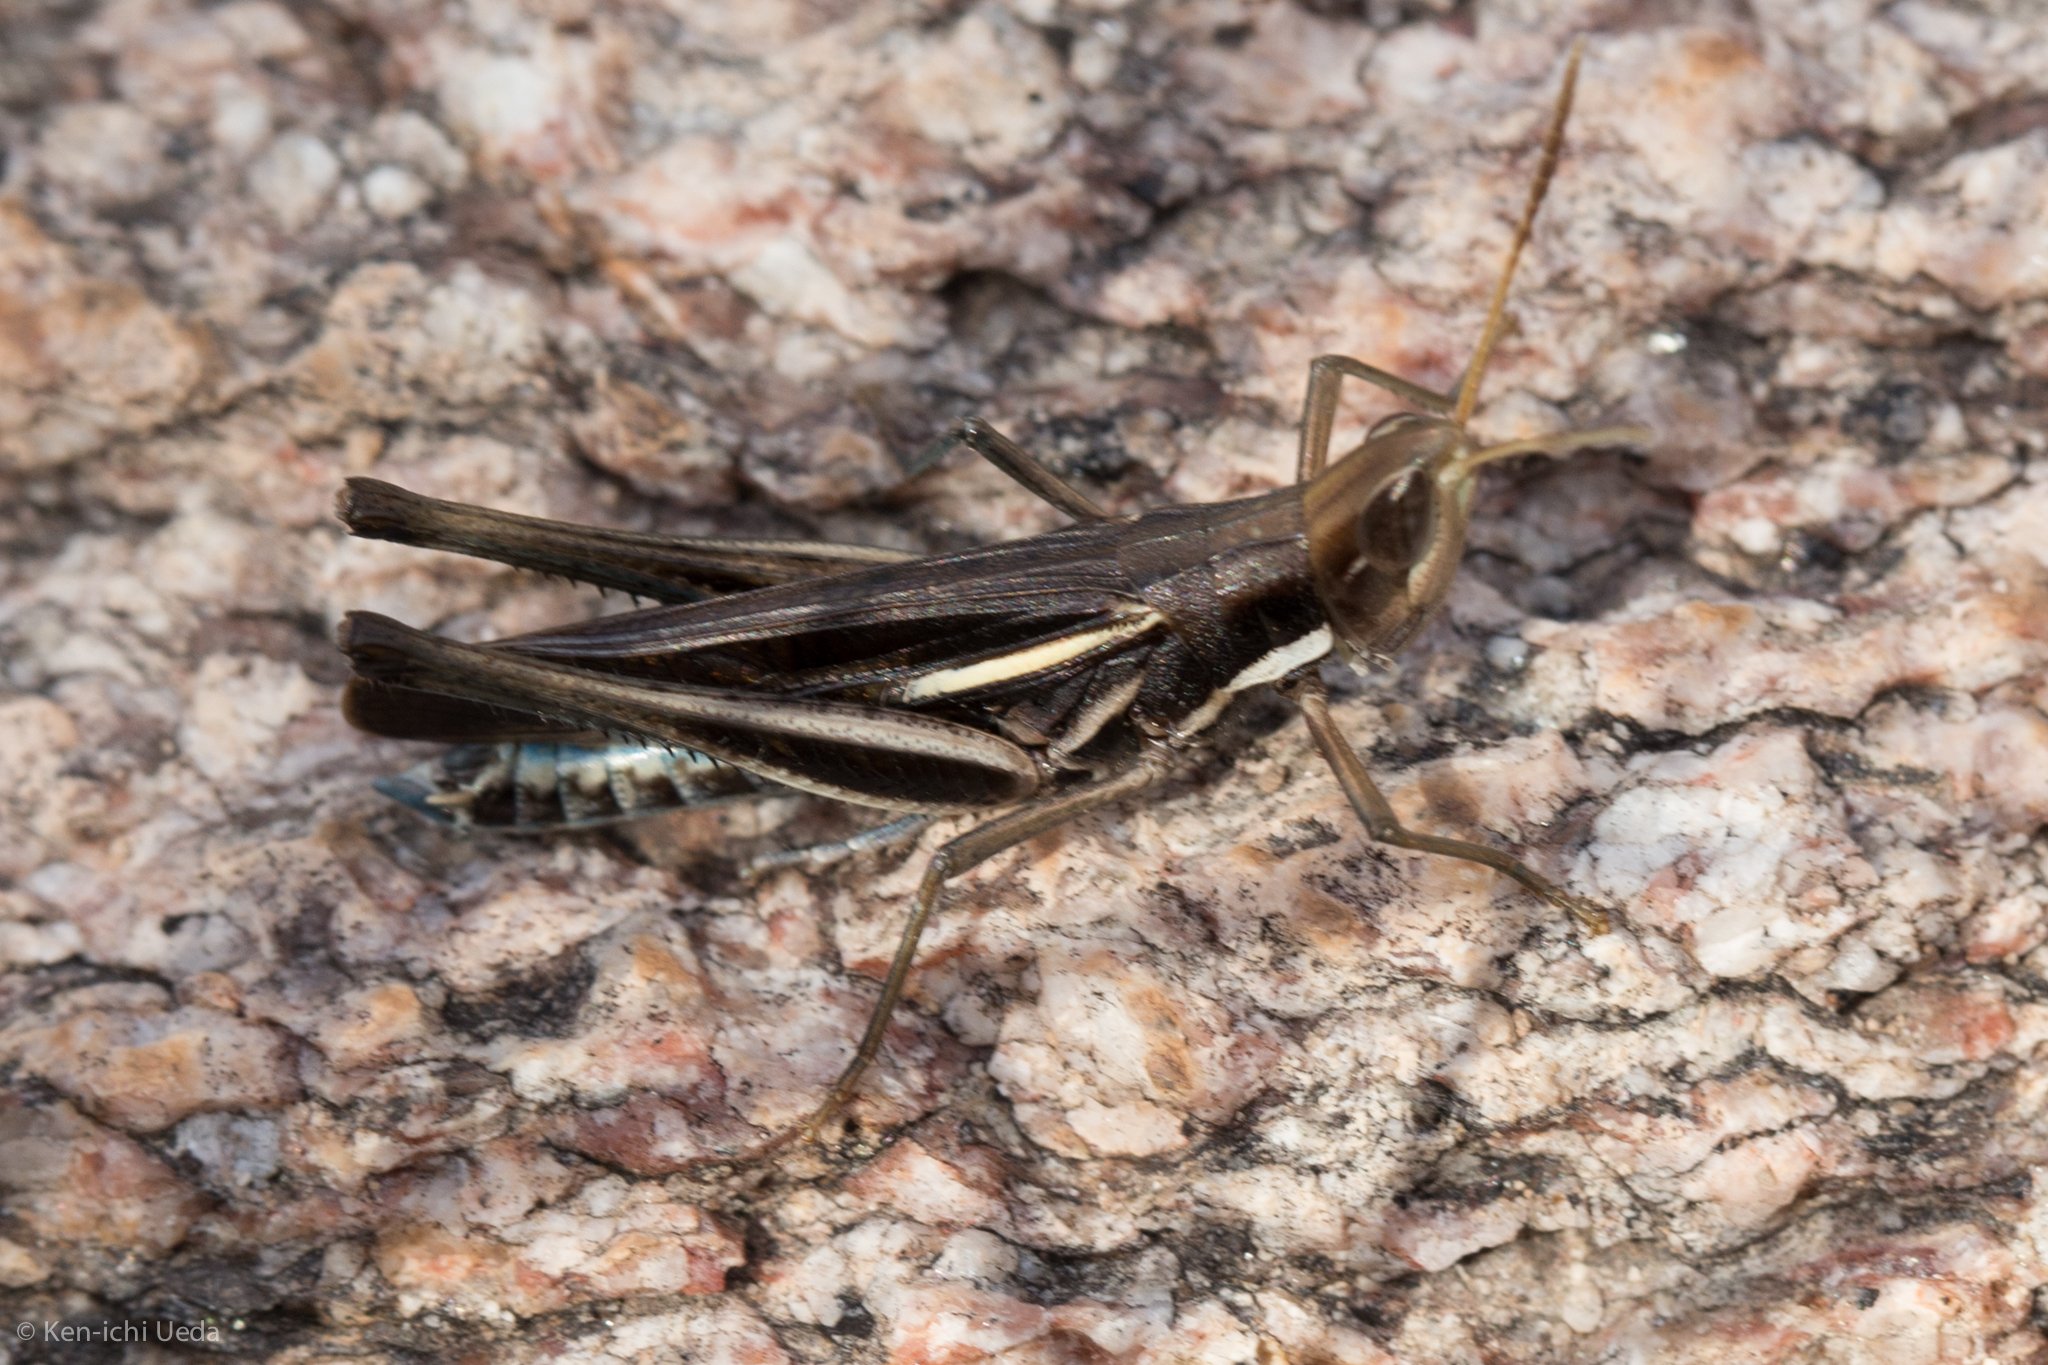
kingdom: Animalia
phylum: Arthropoda
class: Insecta
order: Orthoptera
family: Acrididae
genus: Syrbula
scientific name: Syrbula montezuma
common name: Montezuma's grasshopper
